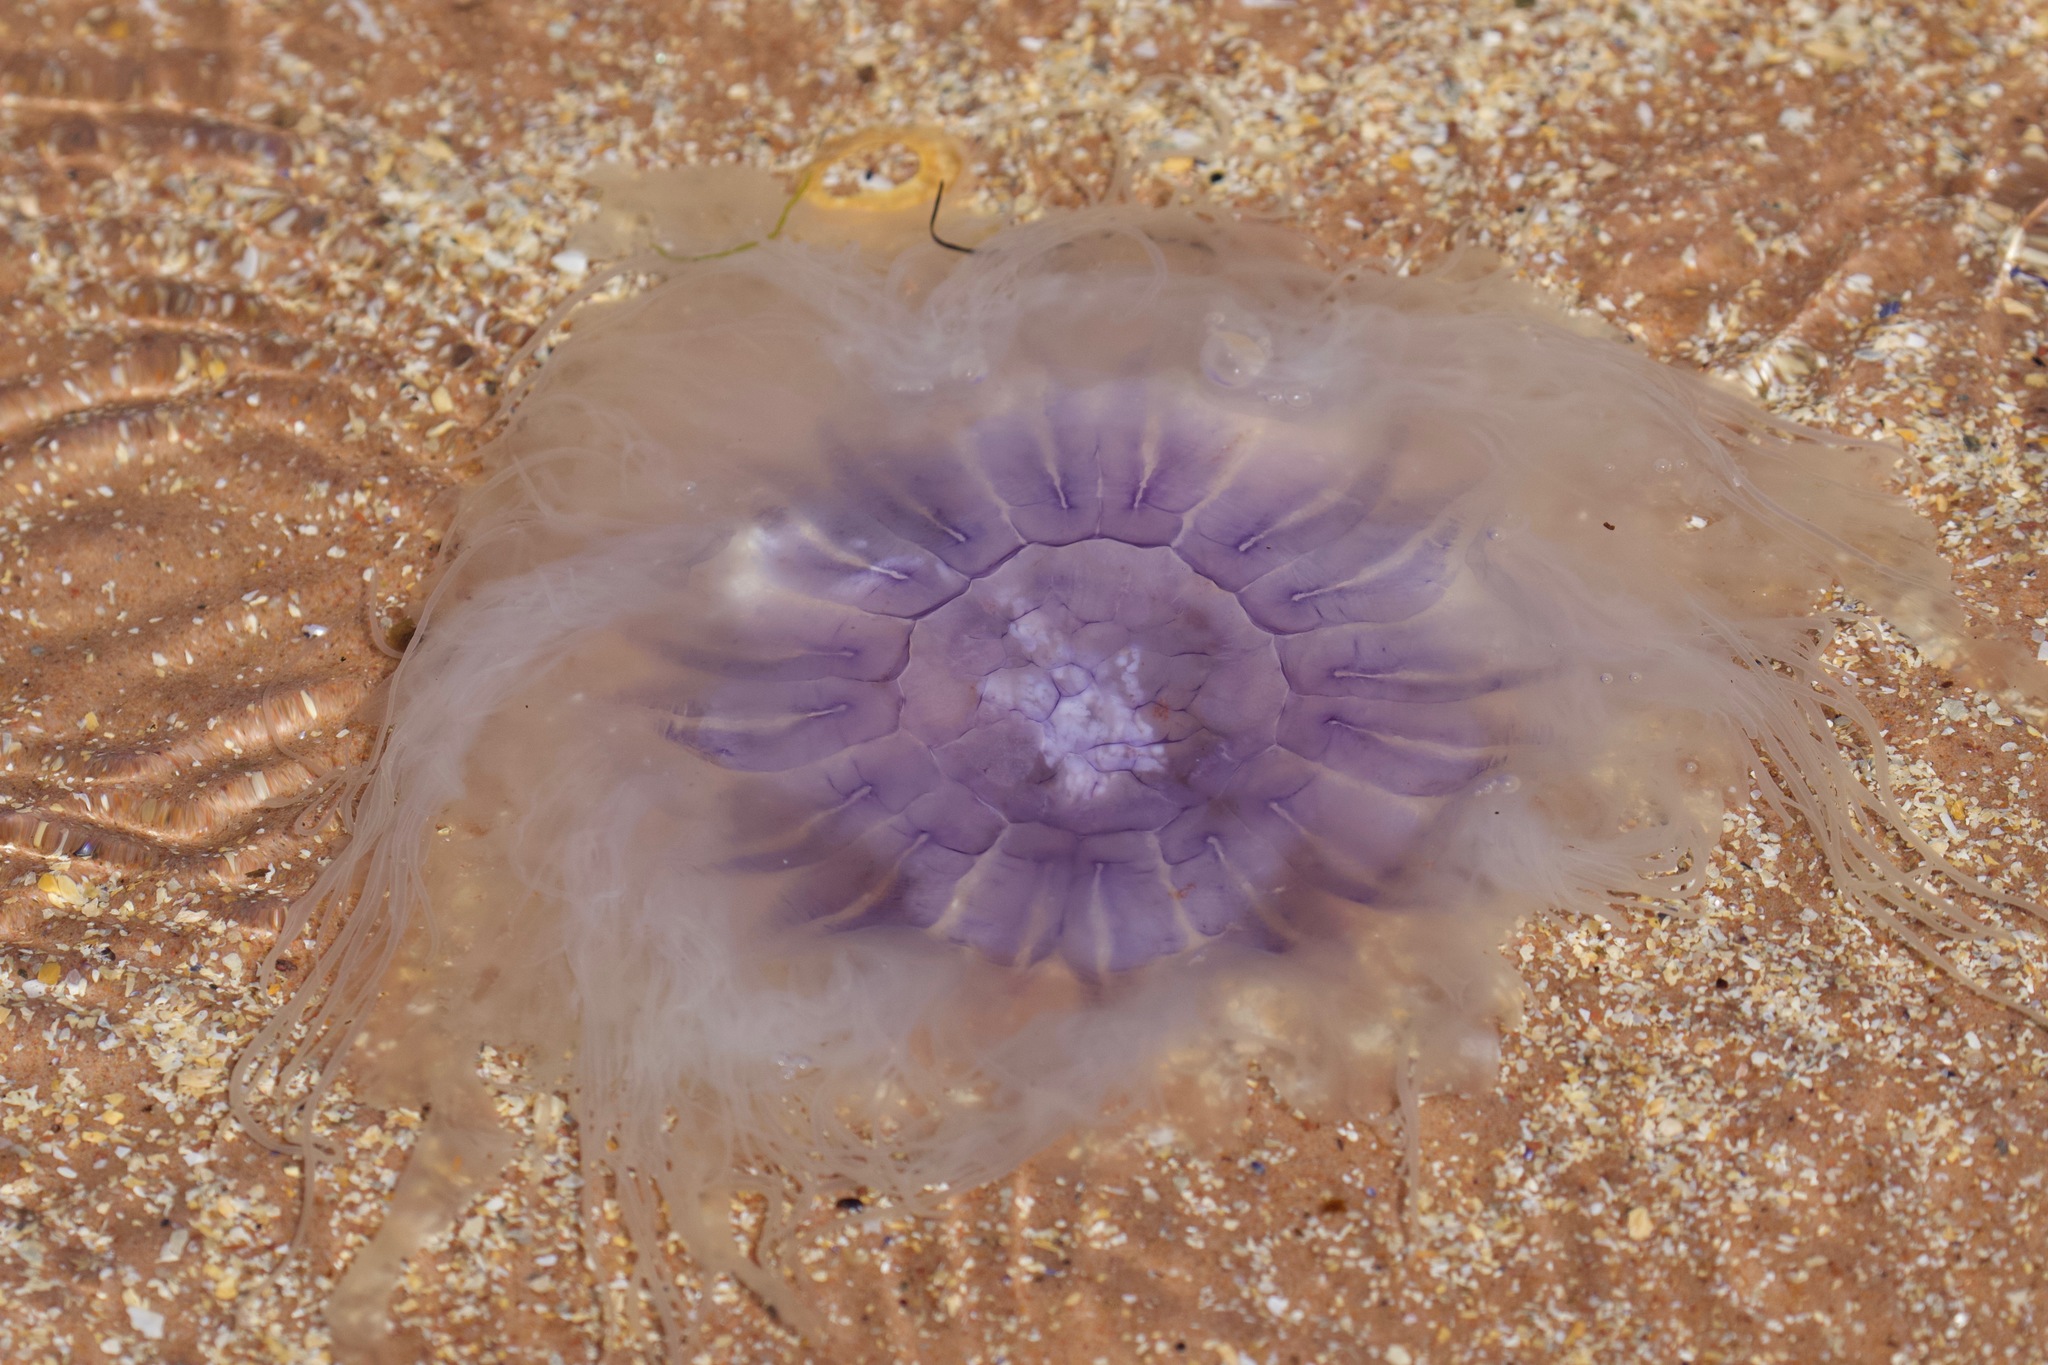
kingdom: Animalia
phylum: Cnidaria
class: Scyphozoa
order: Semaeostomeae
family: Cyaneidae
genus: Cyanea
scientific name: Cyanea lamarckii
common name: Blue jellyfish
